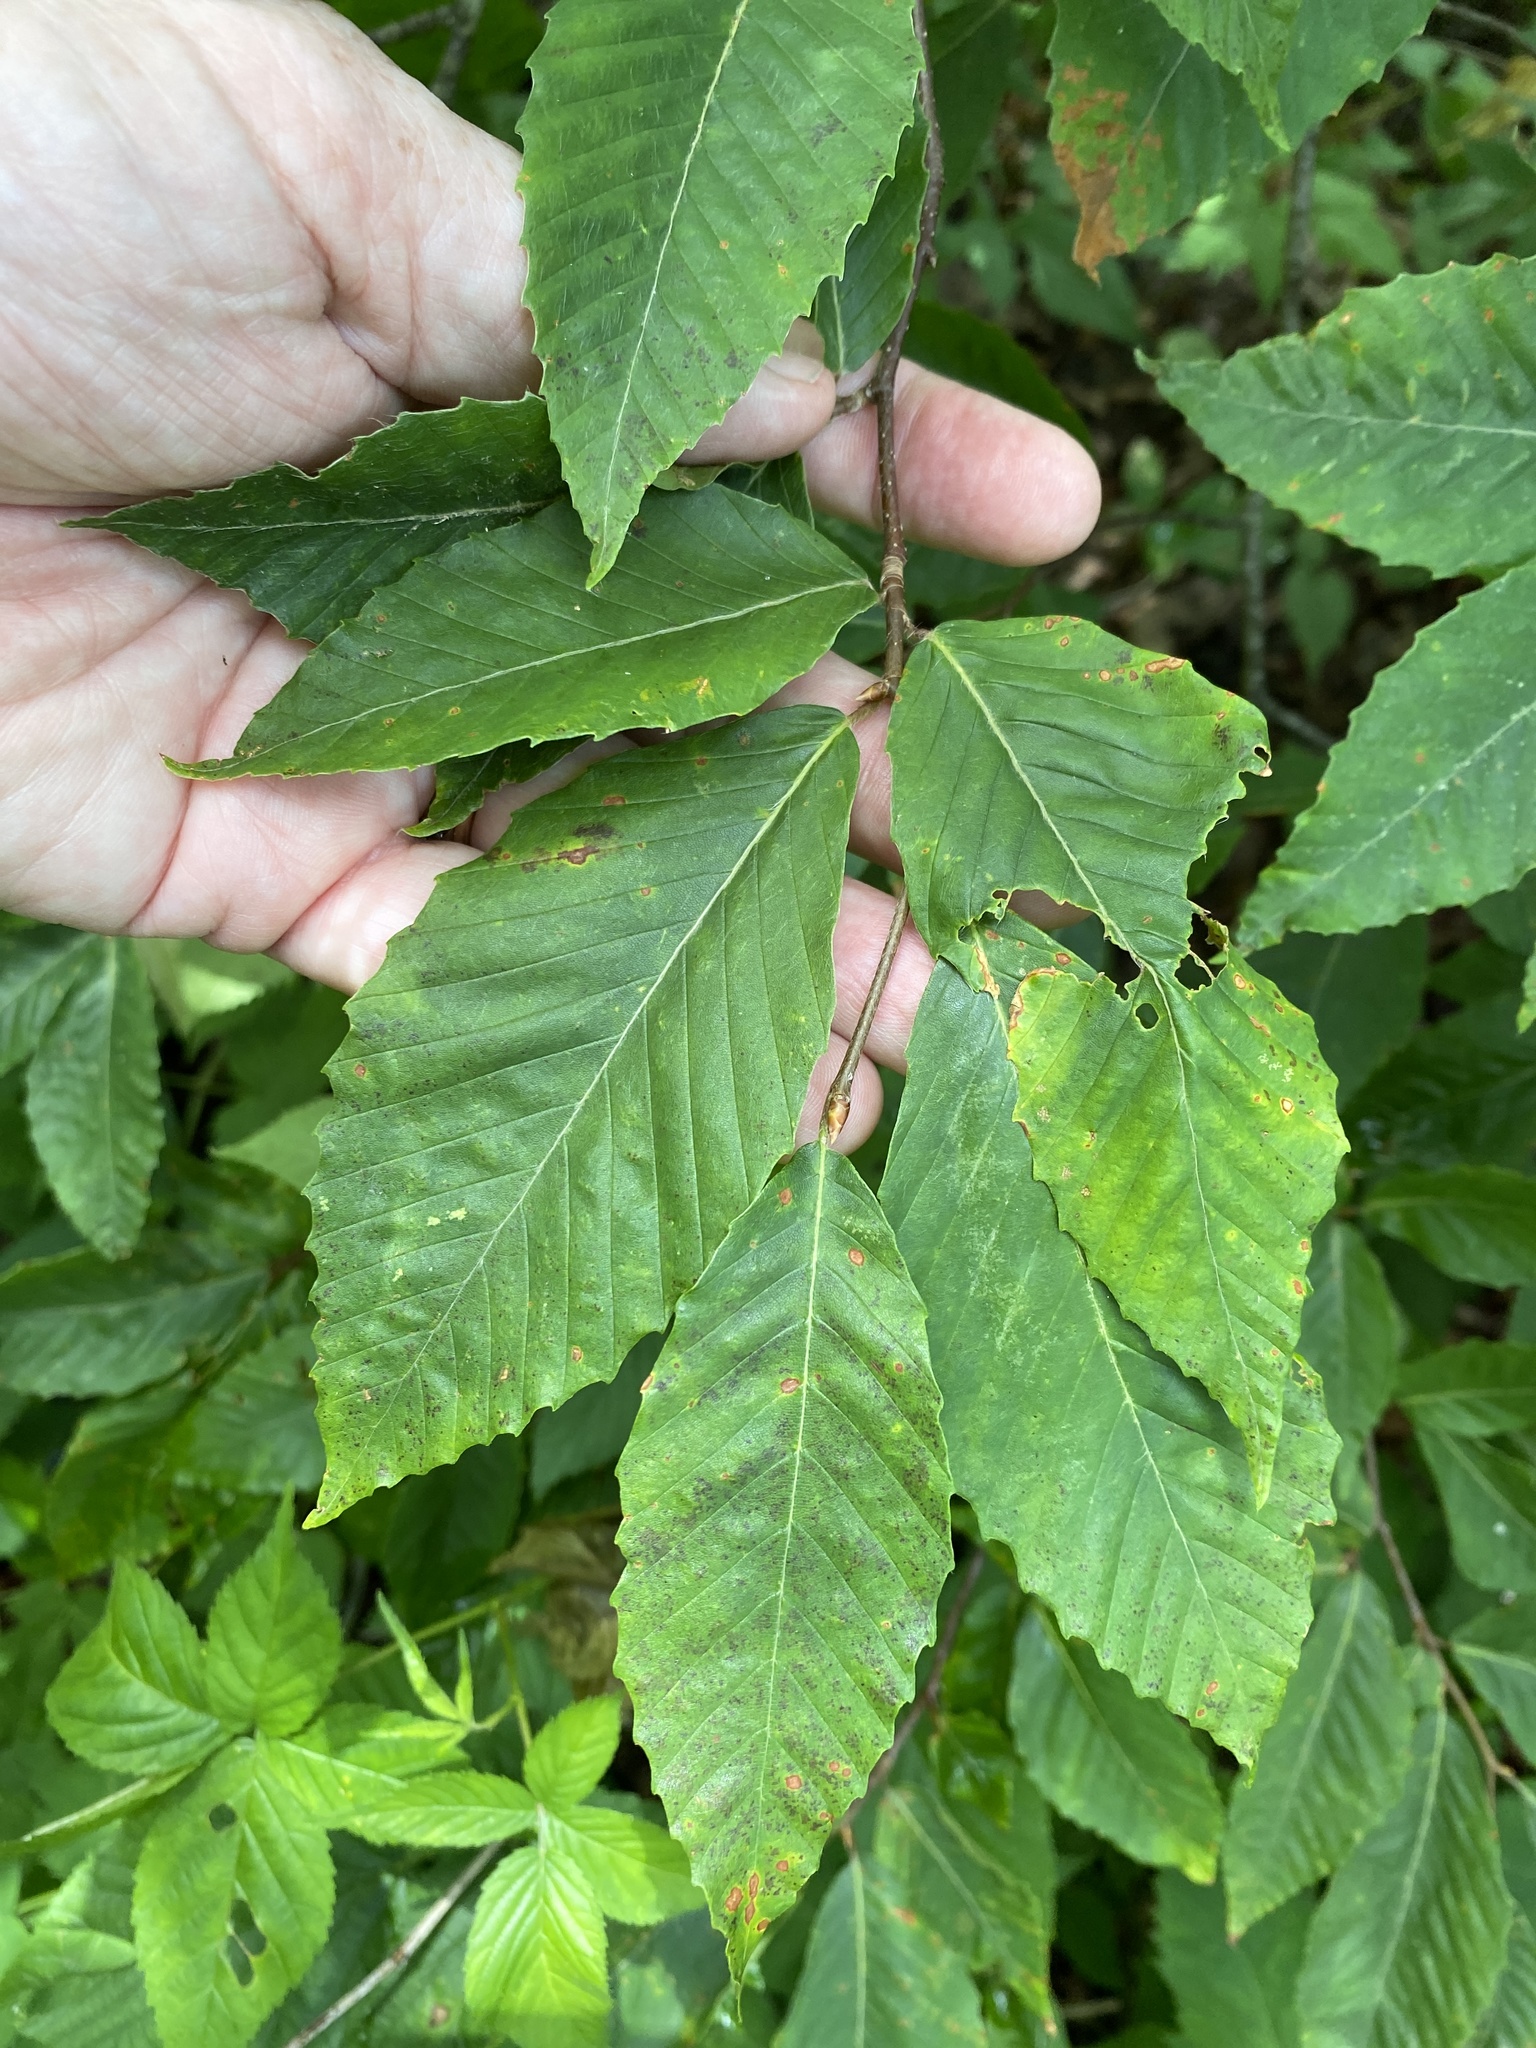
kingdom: Plantae
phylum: Tracheophyta
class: Magnoliopsida
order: Fagales
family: Fagaceae
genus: Fagus
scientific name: Fagus grandifolia
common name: American beech
